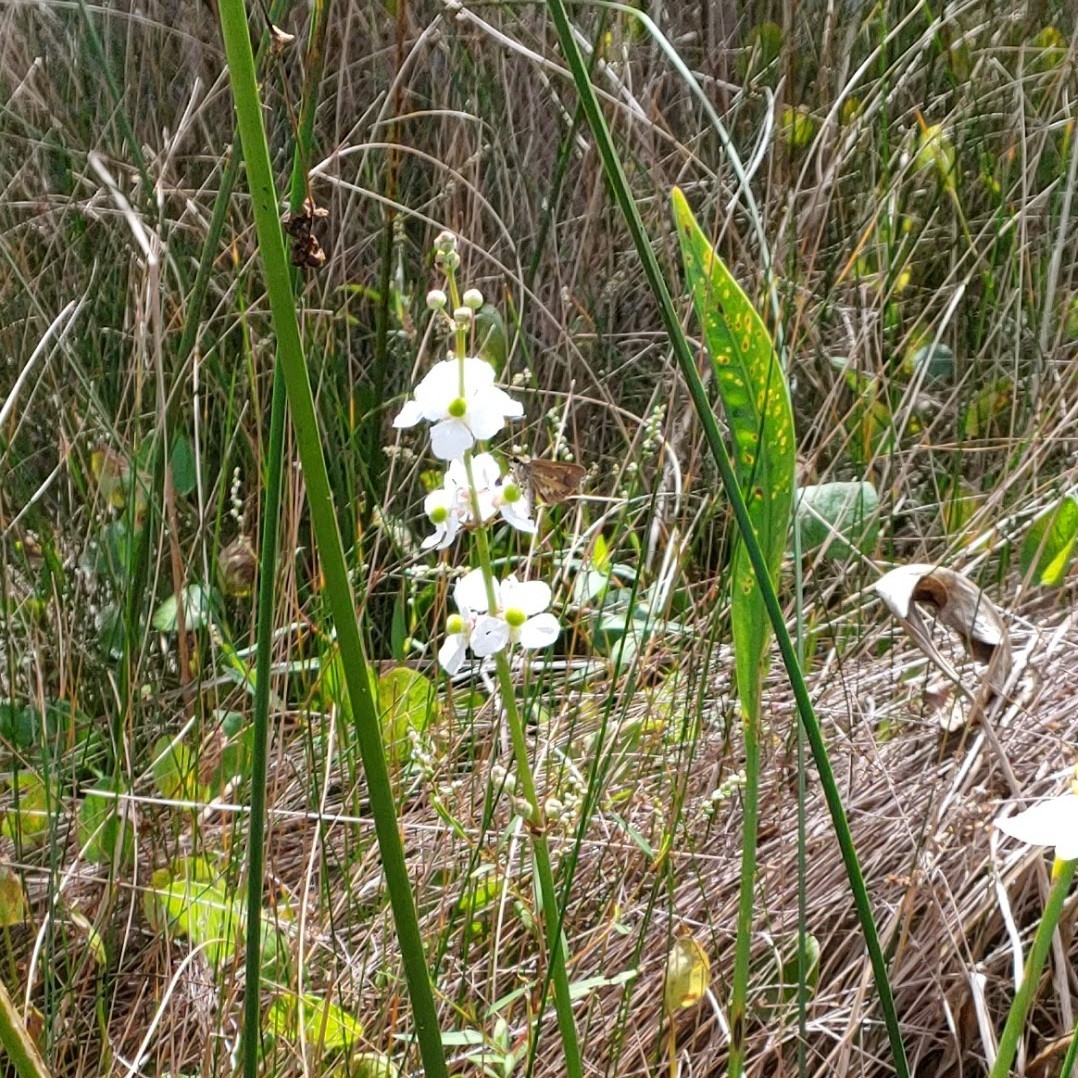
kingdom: Plantae
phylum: Tracheophyta
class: Liliopsida
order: Alismatales
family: Alismataceae
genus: Sagittaria
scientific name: Sagittaria lancifolia
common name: Lance-leaf arrowhead
